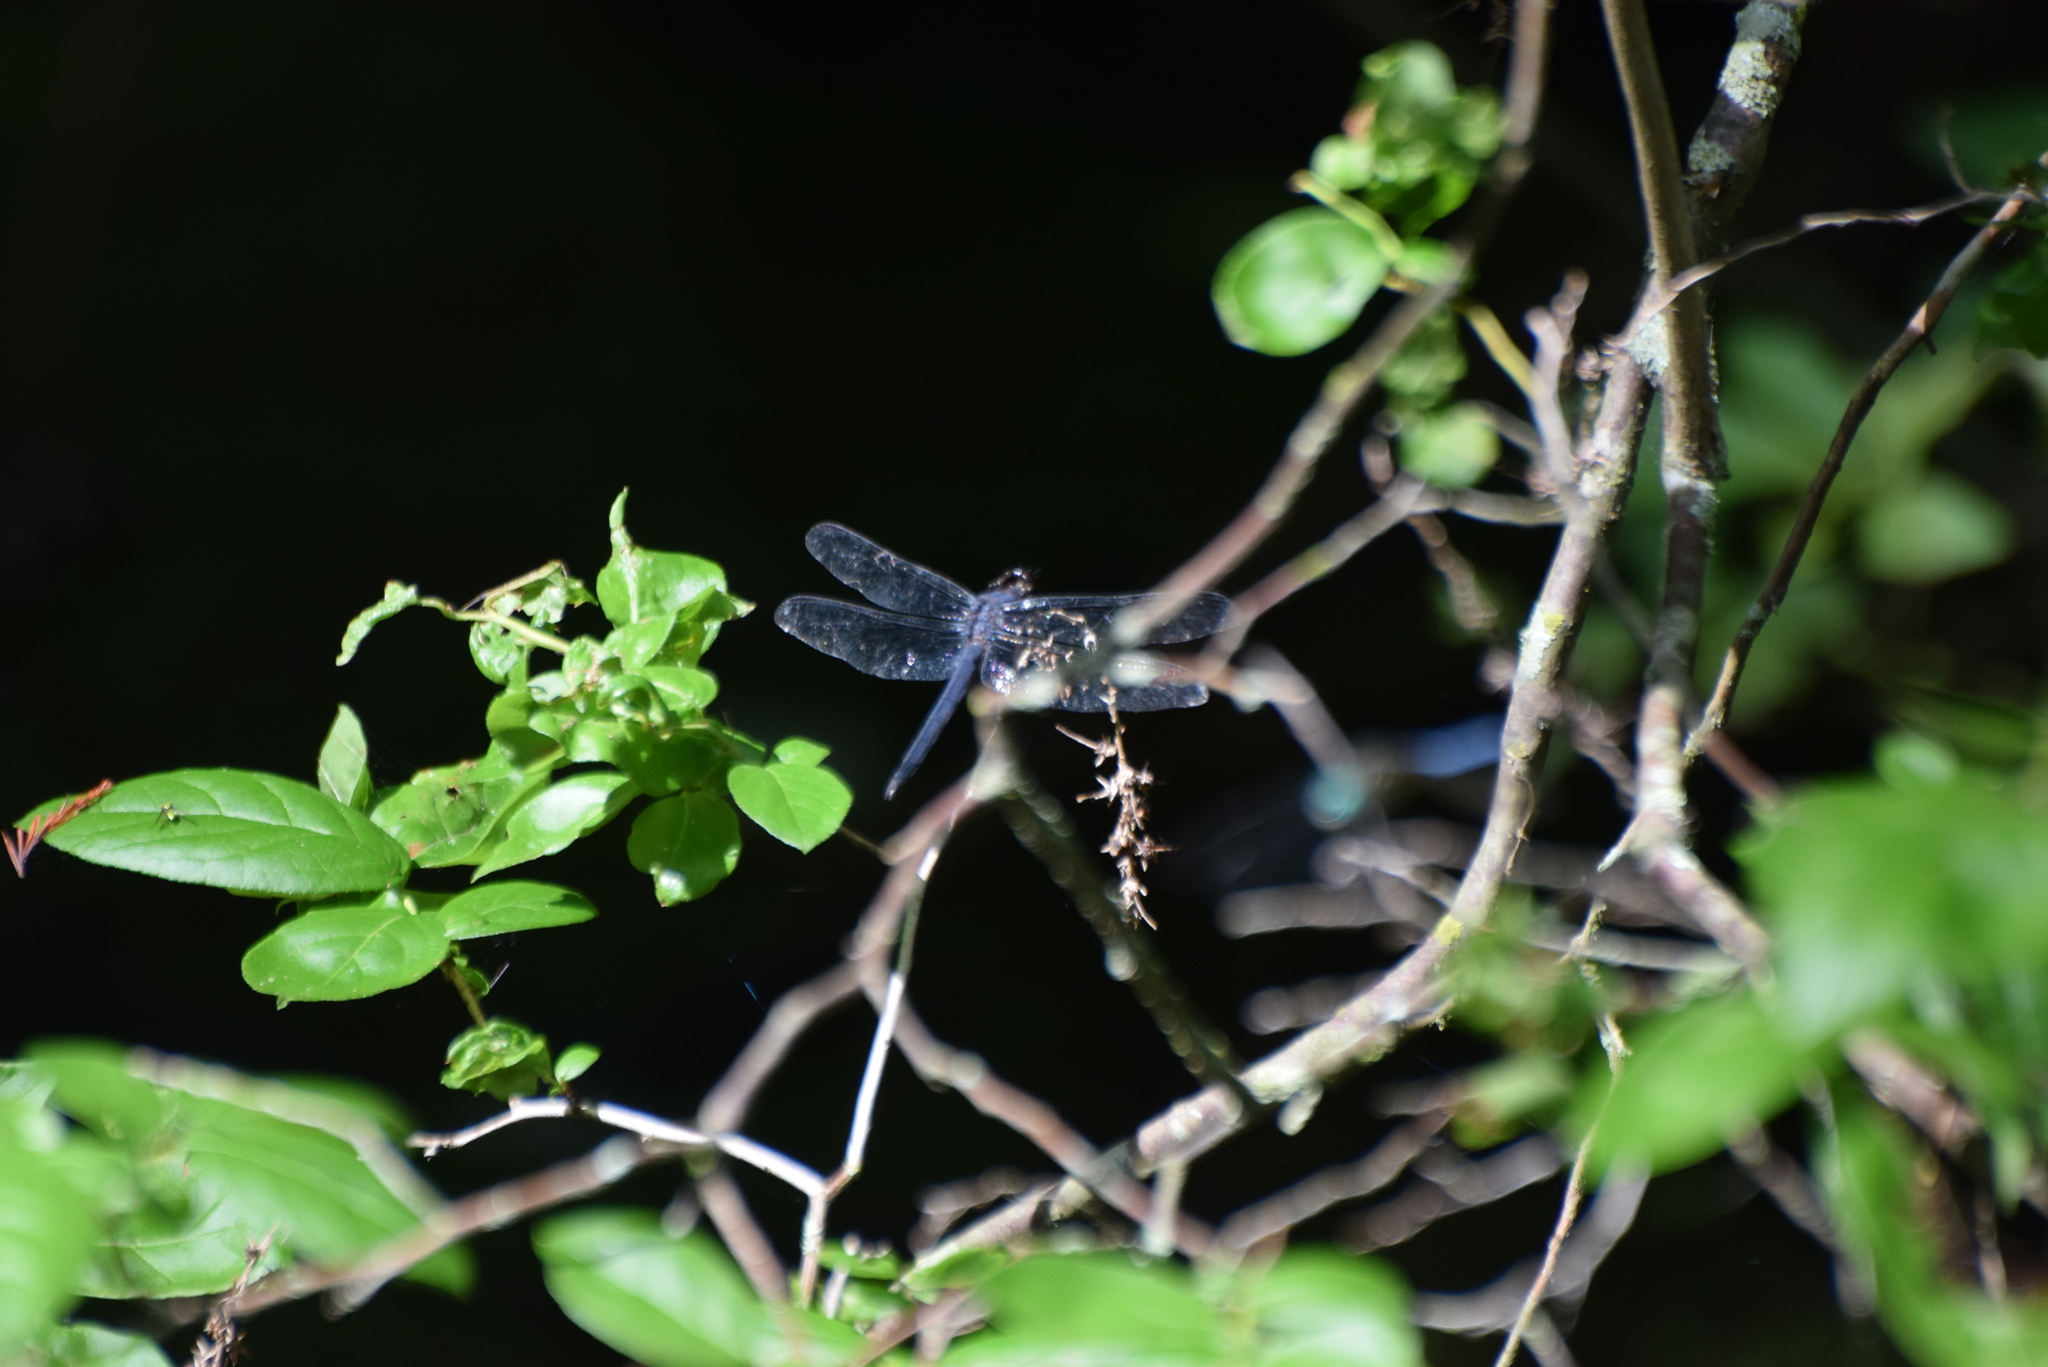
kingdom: Animalia
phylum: Arthropoda
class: Insecta
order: Odonata
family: Libellulidae
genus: Libellula
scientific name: Libellula incesta
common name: Slaty skimmer
